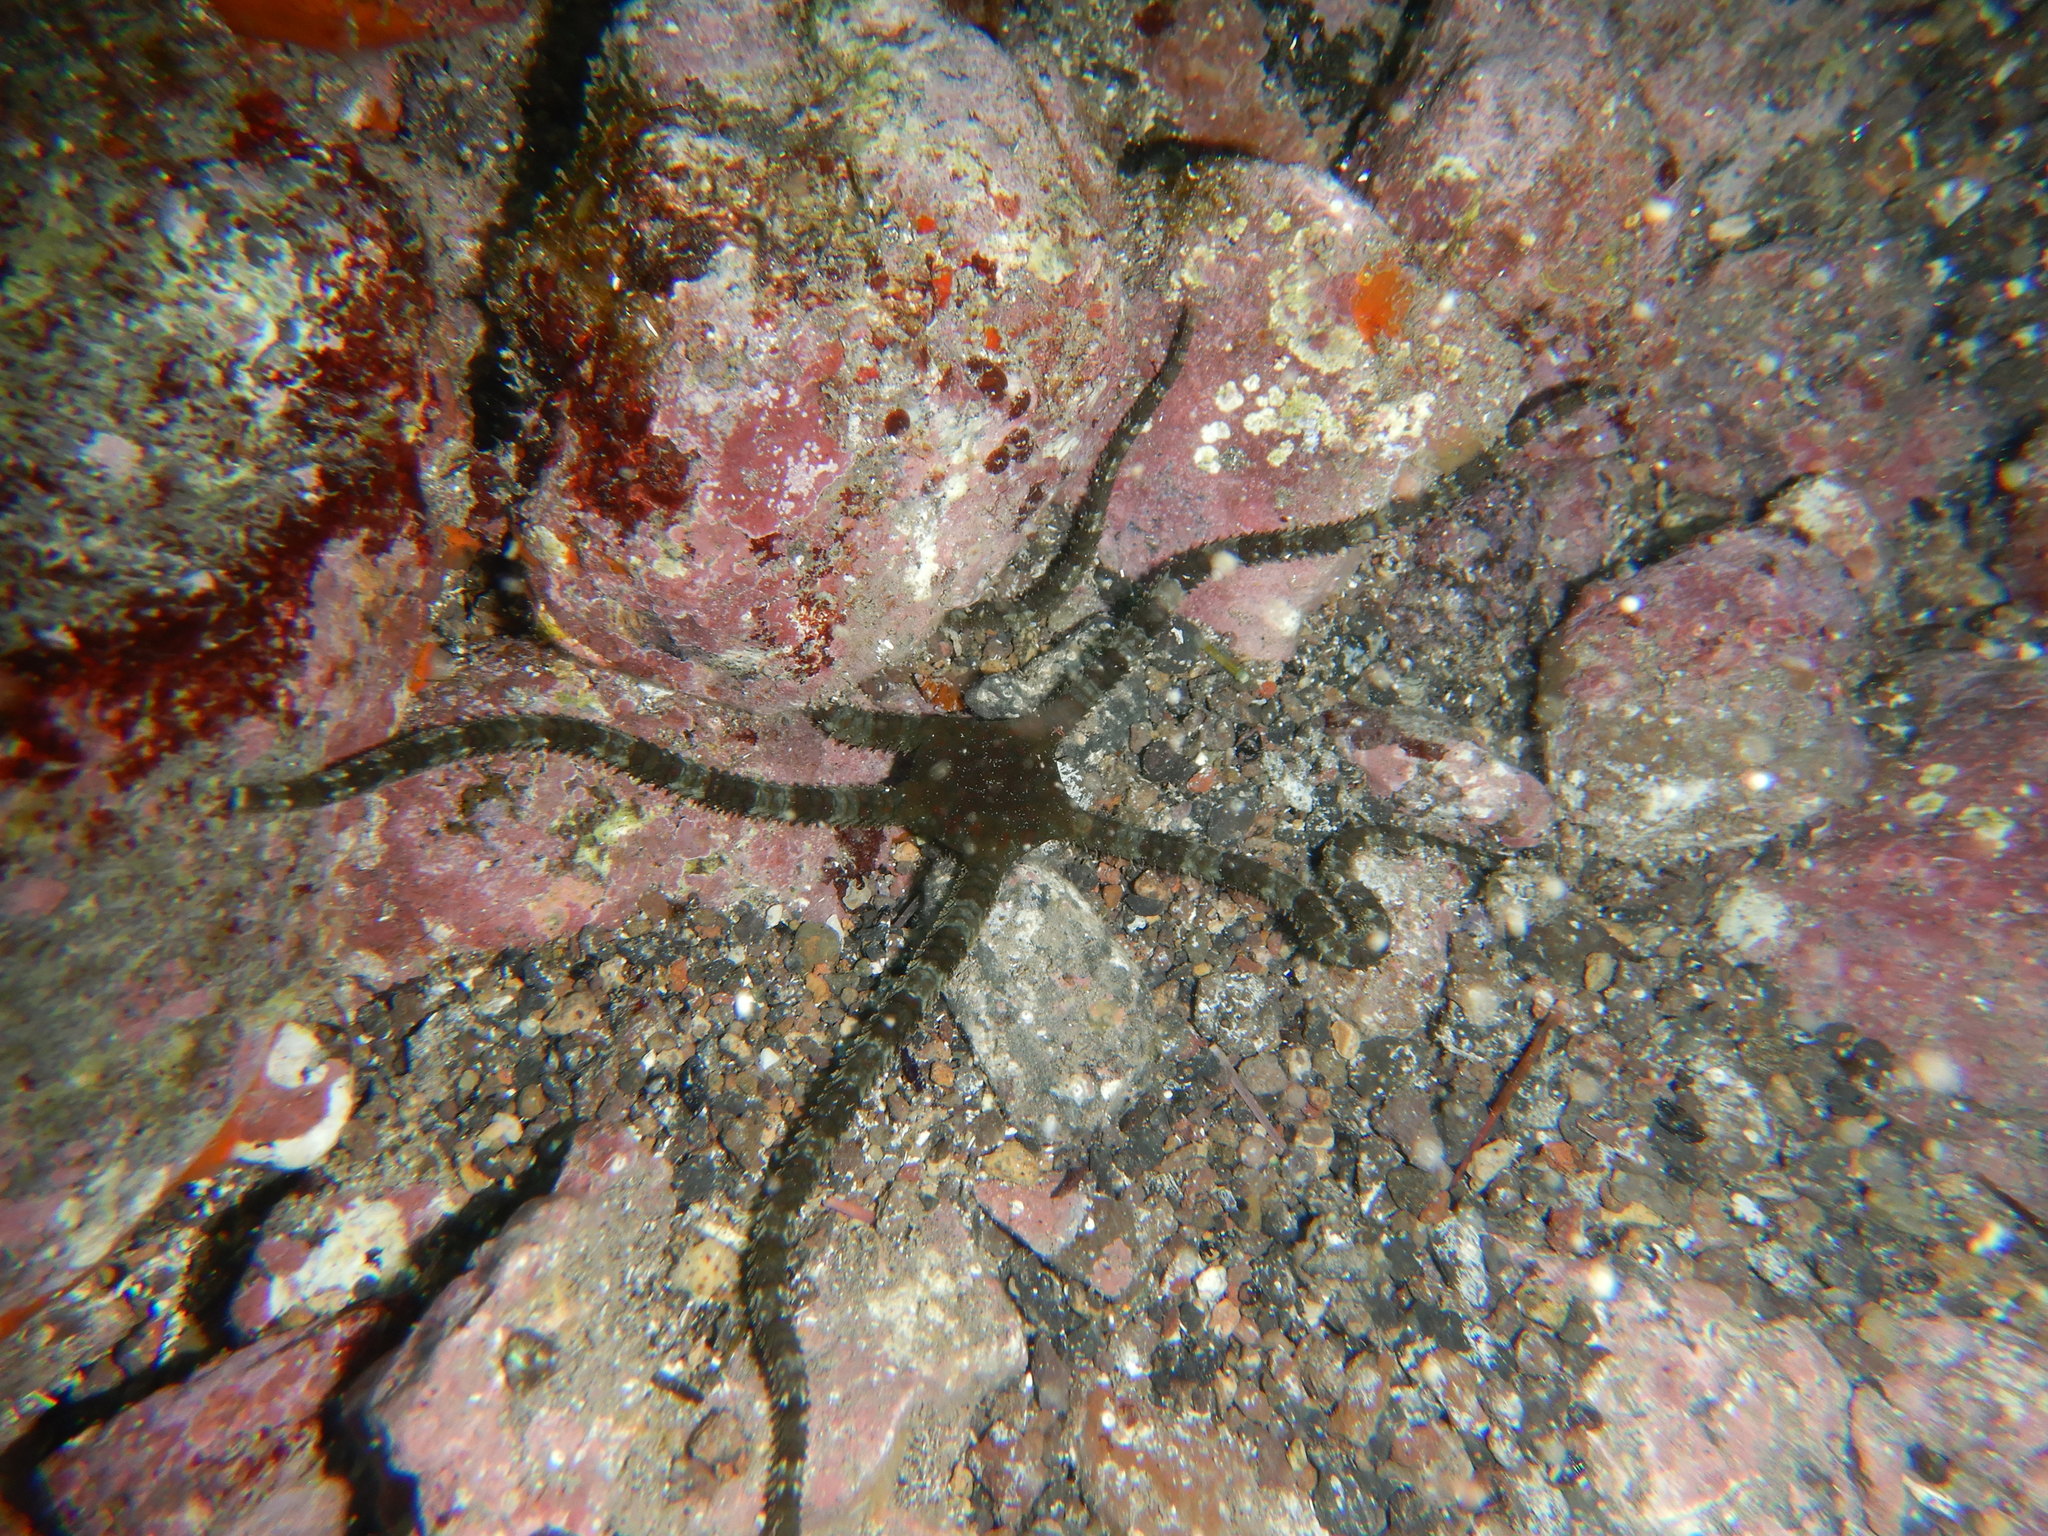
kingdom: Animalia
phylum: Echinodermata
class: Ophiuroidea
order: Ophiacanthida
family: Ophiodermatidae
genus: Ophioderma
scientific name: Ophioderma longicaudum
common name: Smooth brittle-star
